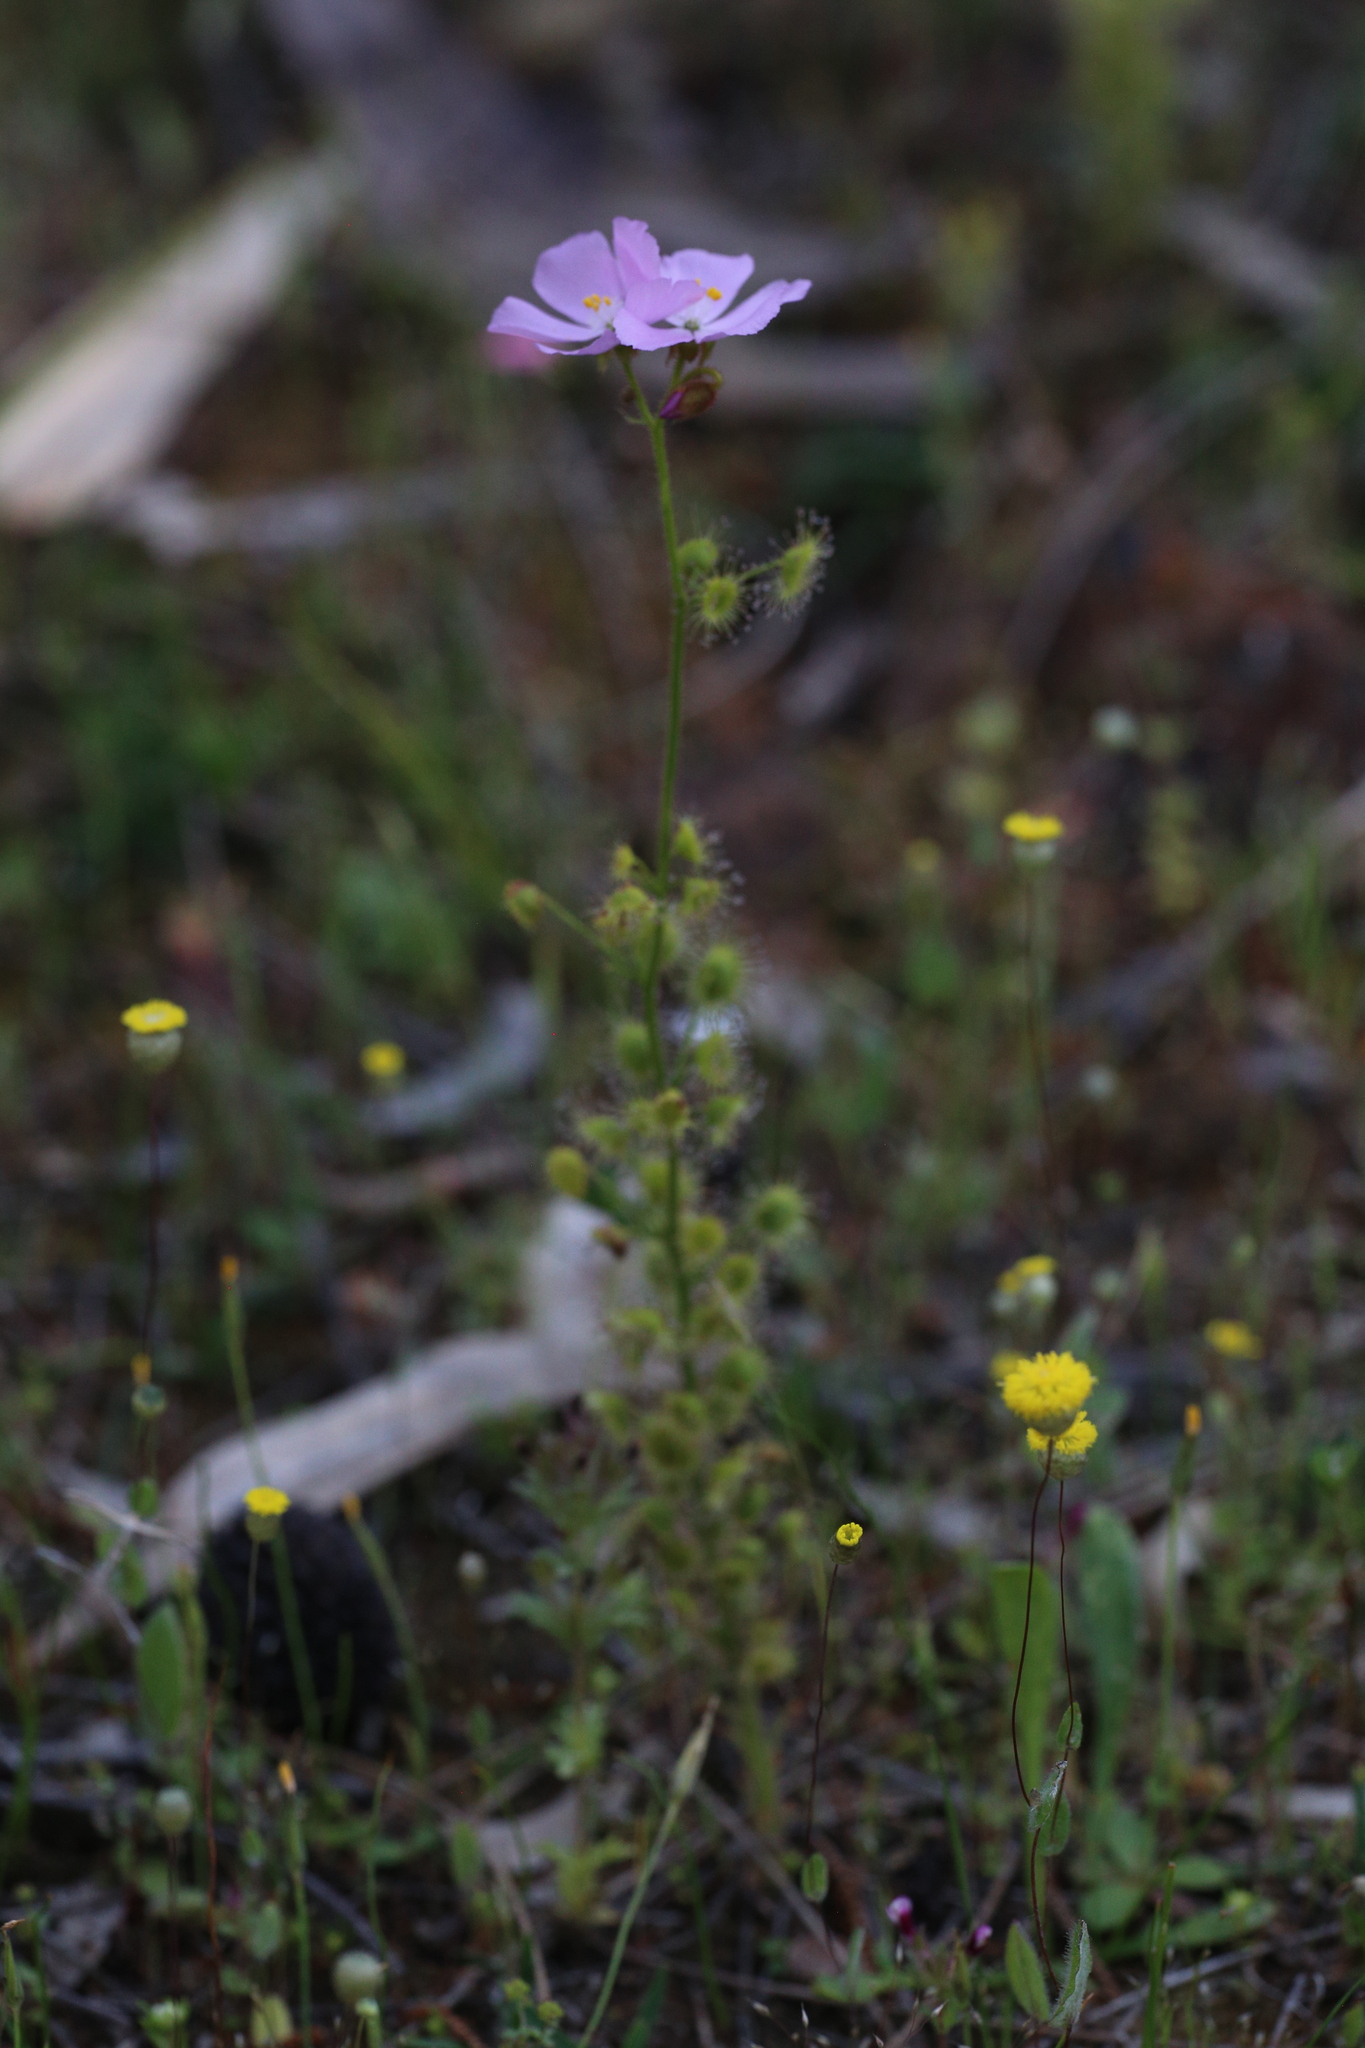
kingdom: Plantae
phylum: Tracheophyta
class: Magnoliopsida
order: Caryophyllales
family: Droseraceae
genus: Drosera
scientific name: Drosera stricticaulis
